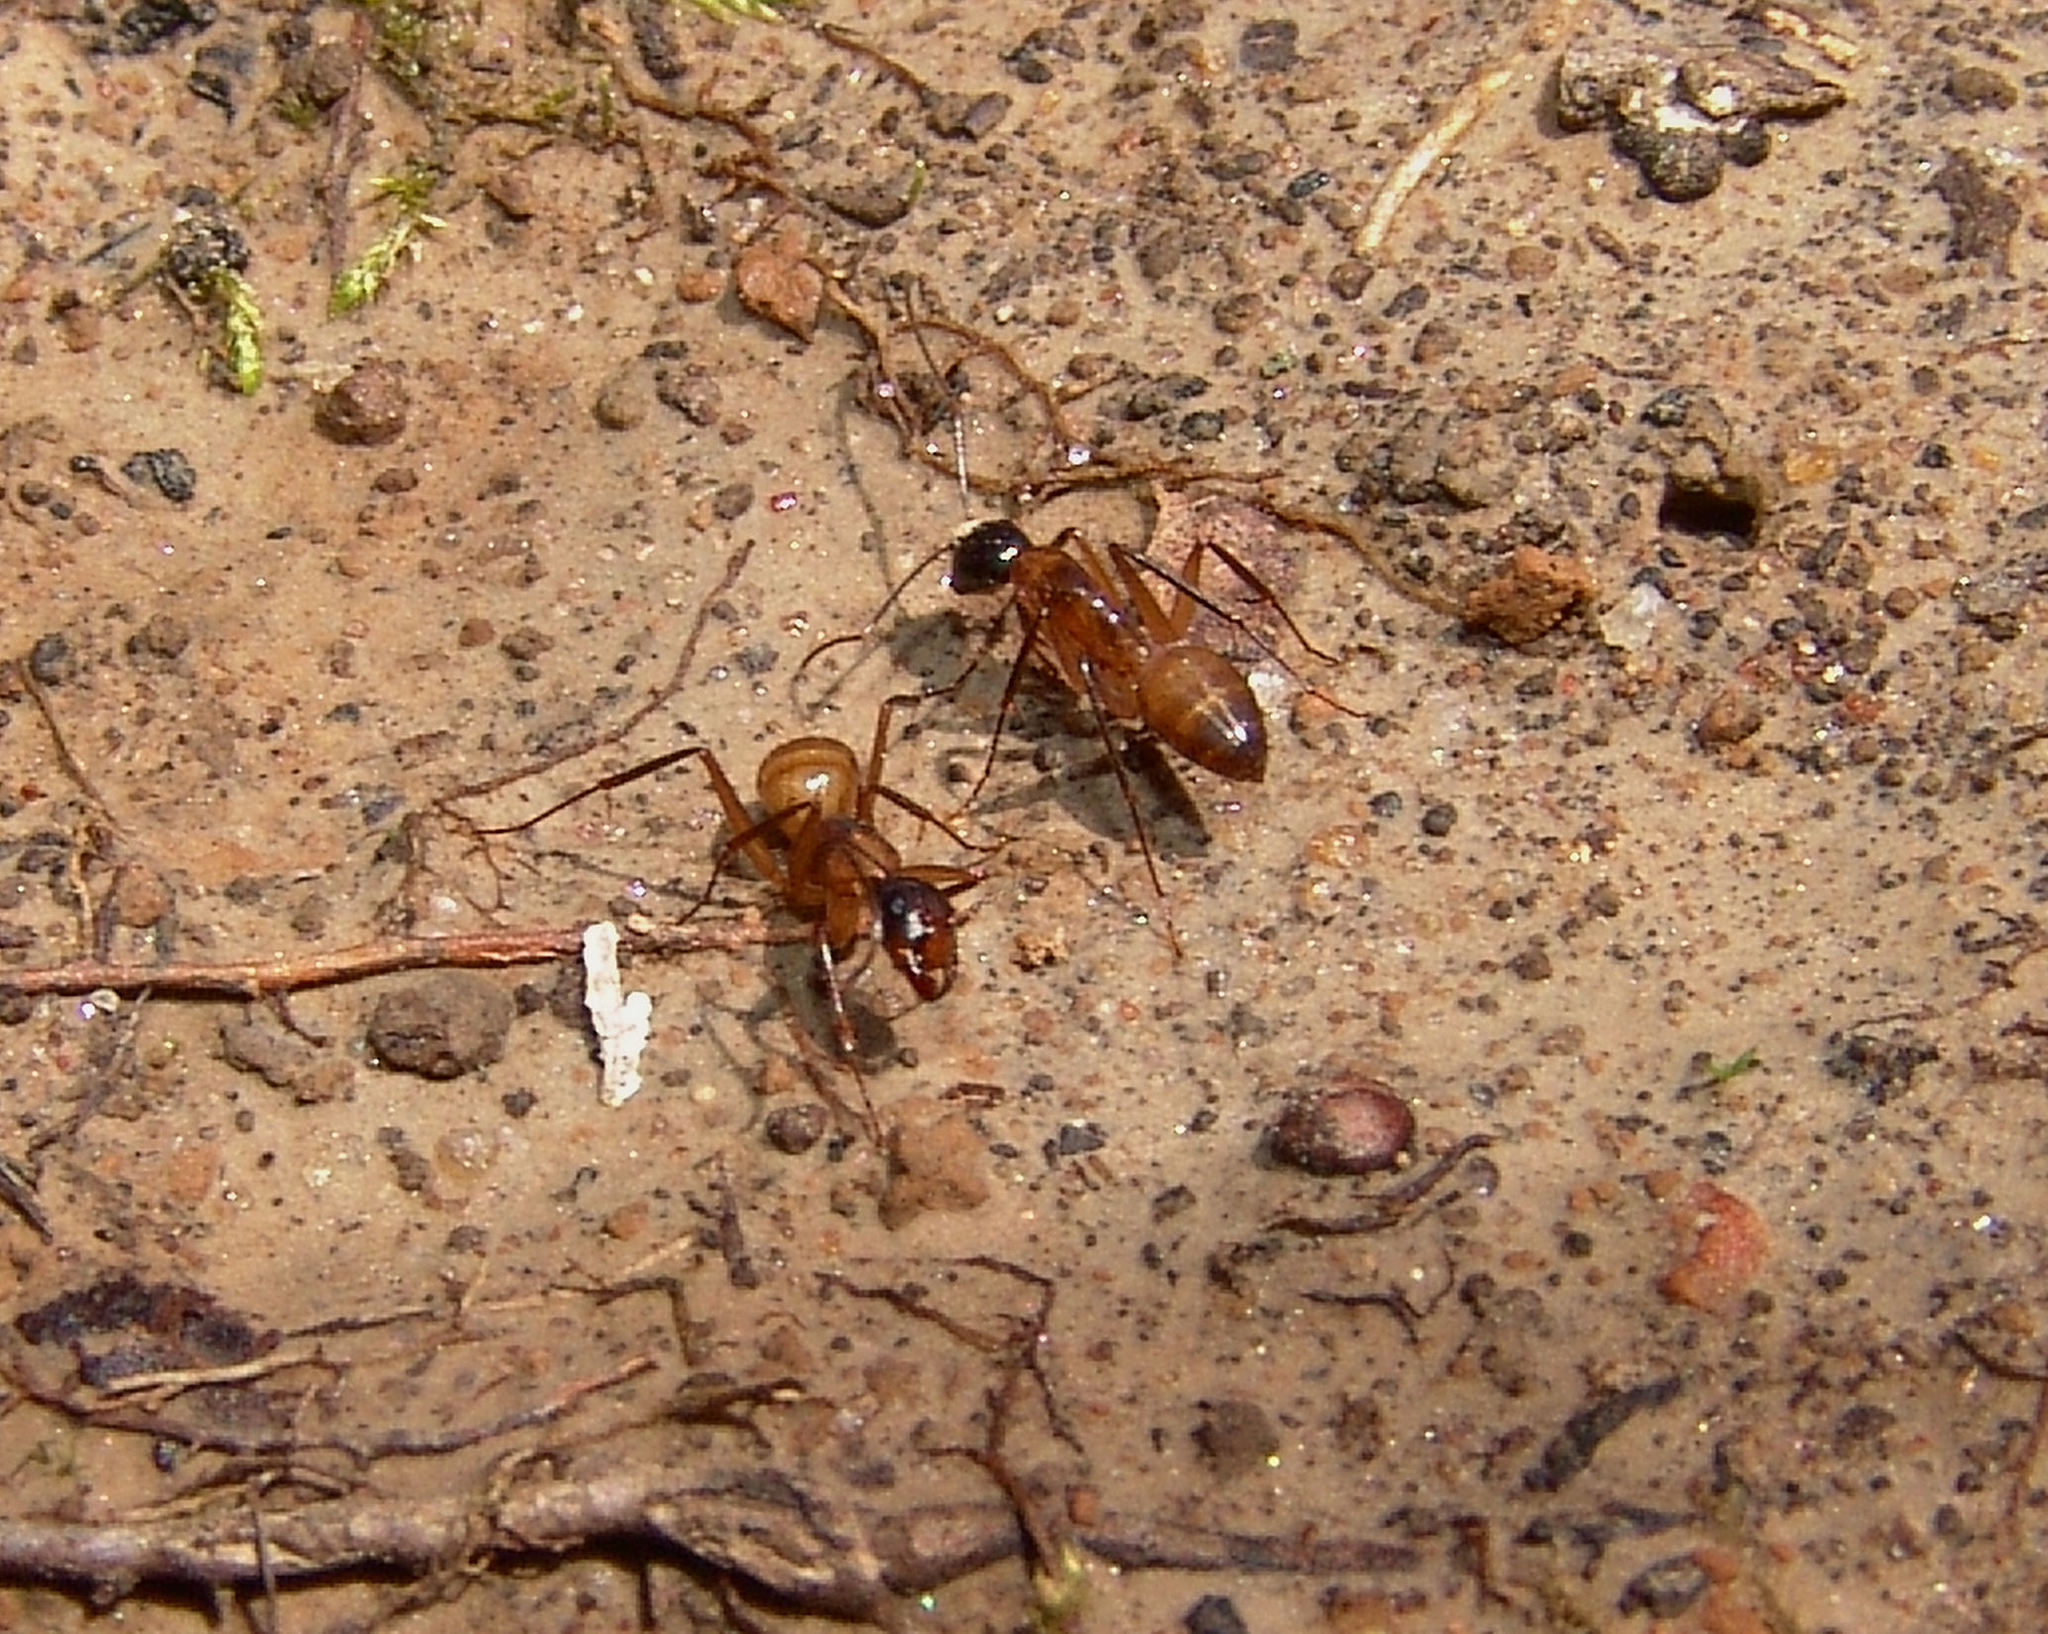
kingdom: Animalia
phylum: Arthropoda
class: Insecta
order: Hymenoptera
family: Formicidae
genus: Camponotus
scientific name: Camponotus americanus
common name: American carpenter ant
